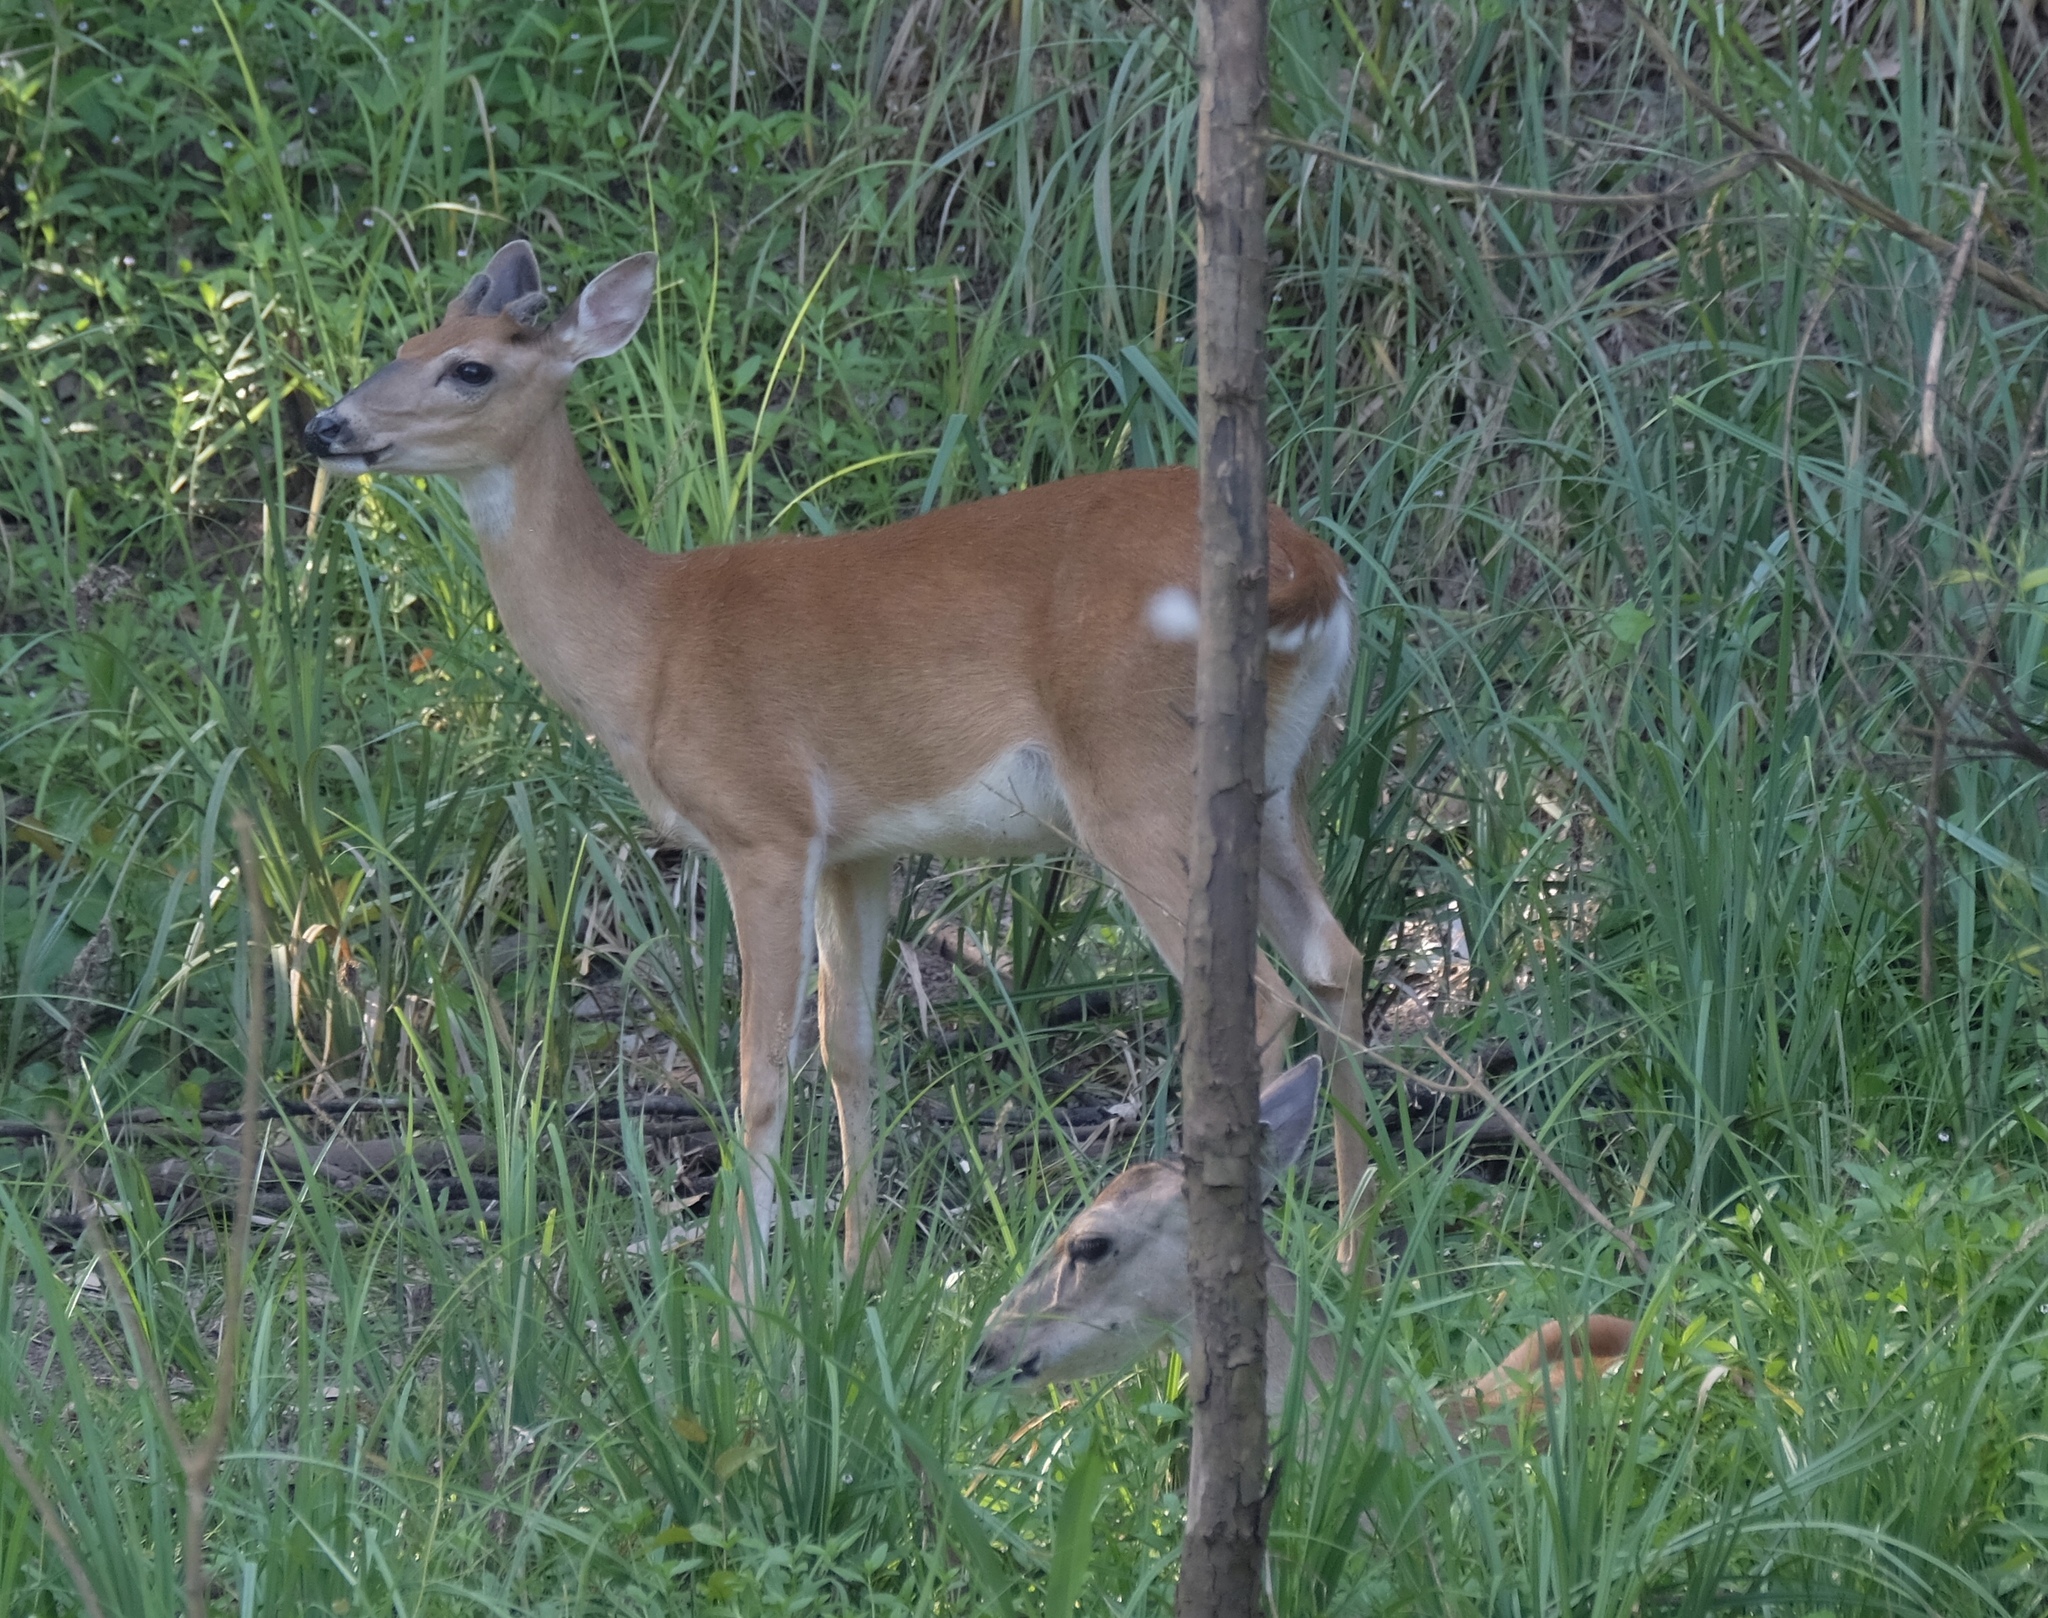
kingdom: Animalia
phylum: Chordata
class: Mammalia
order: Artiodactyla
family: Cervidae
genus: Odocoileus
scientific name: Odocoileus virginianus
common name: White-tailed deer
